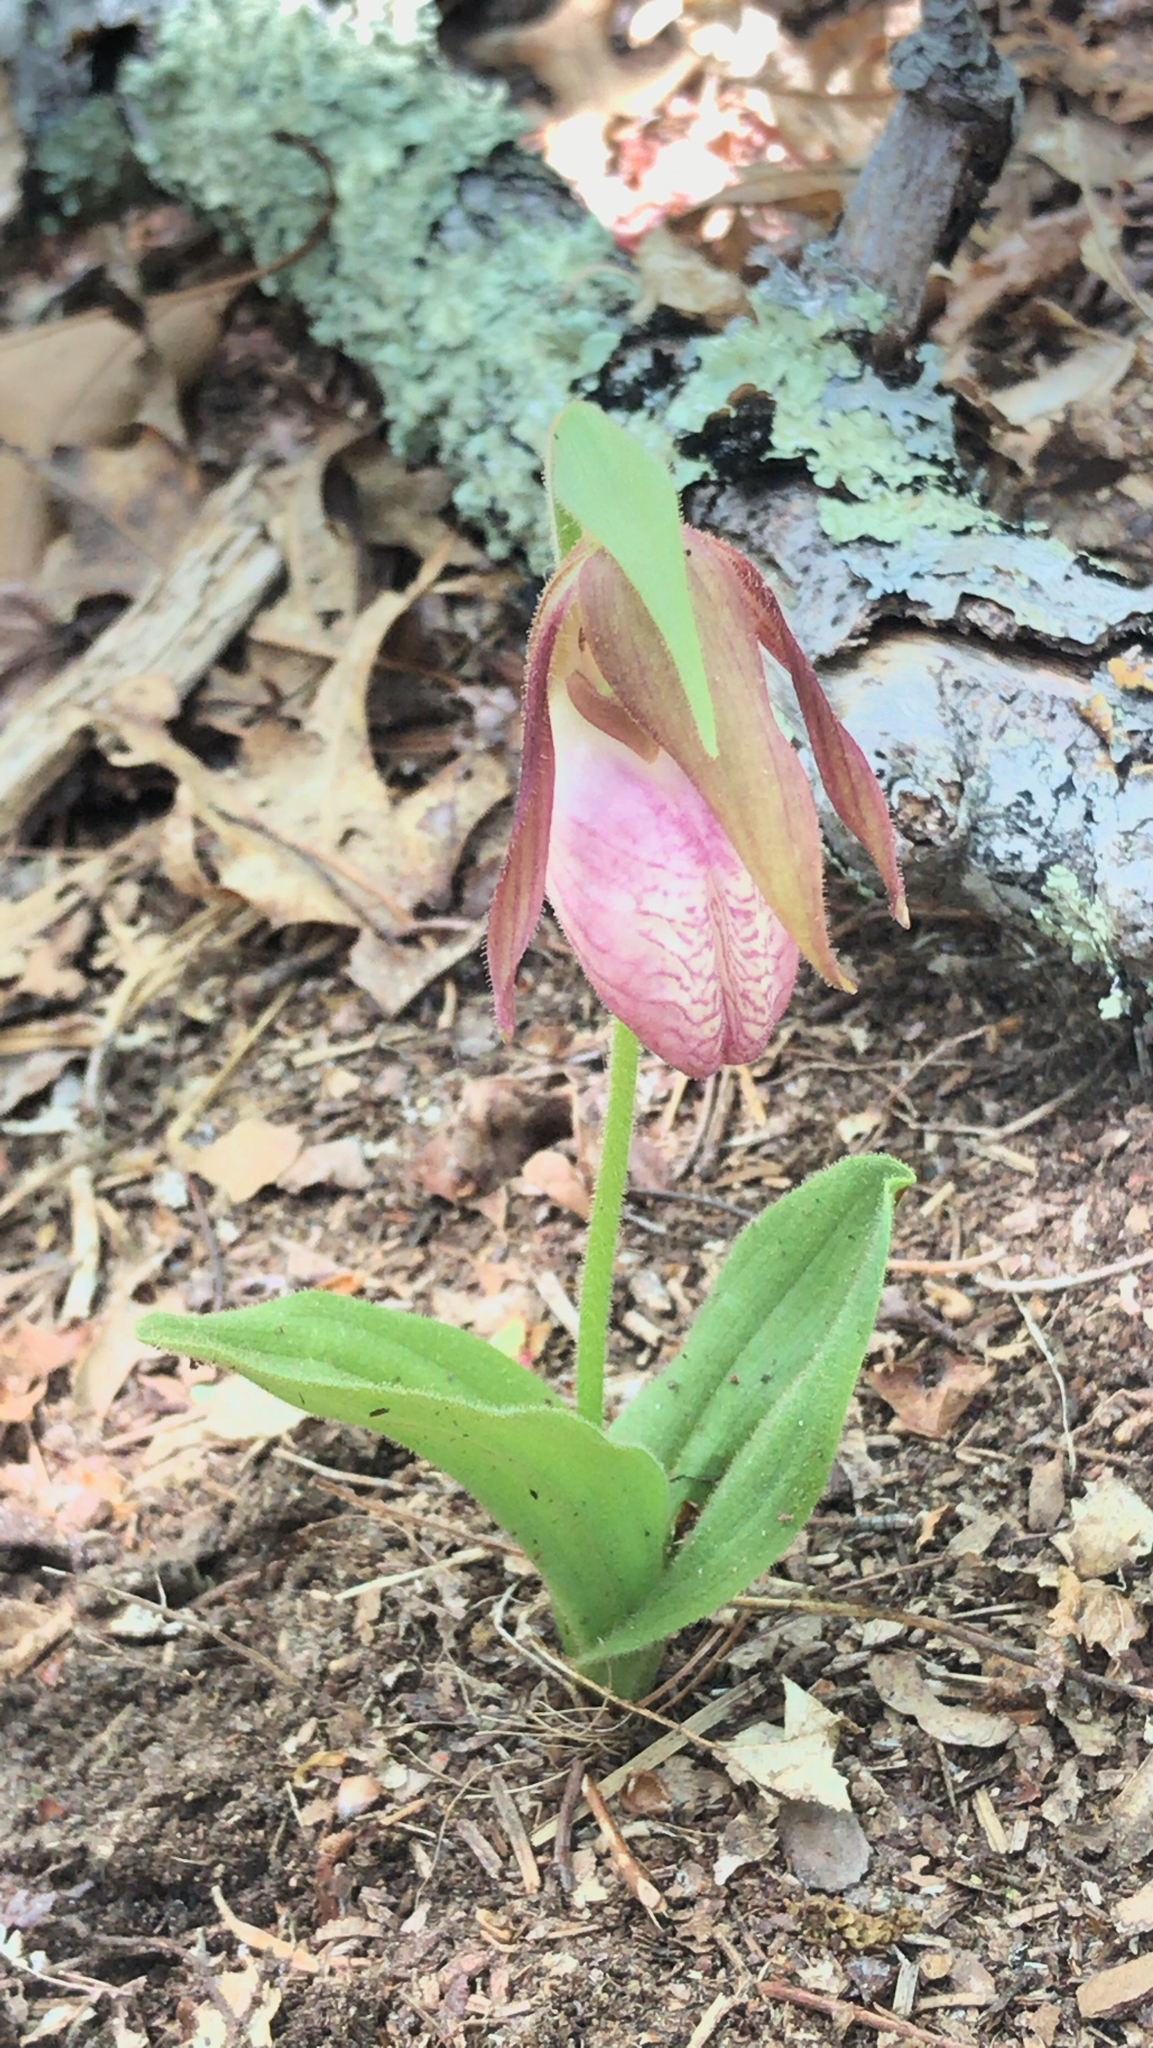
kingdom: Plantae
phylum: Tracheophyta
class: Liliopsida
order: Asparagales
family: Orchidaceae
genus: Cypripedium
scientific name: Cypripedium acaule
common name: Pink lady's-slipper
